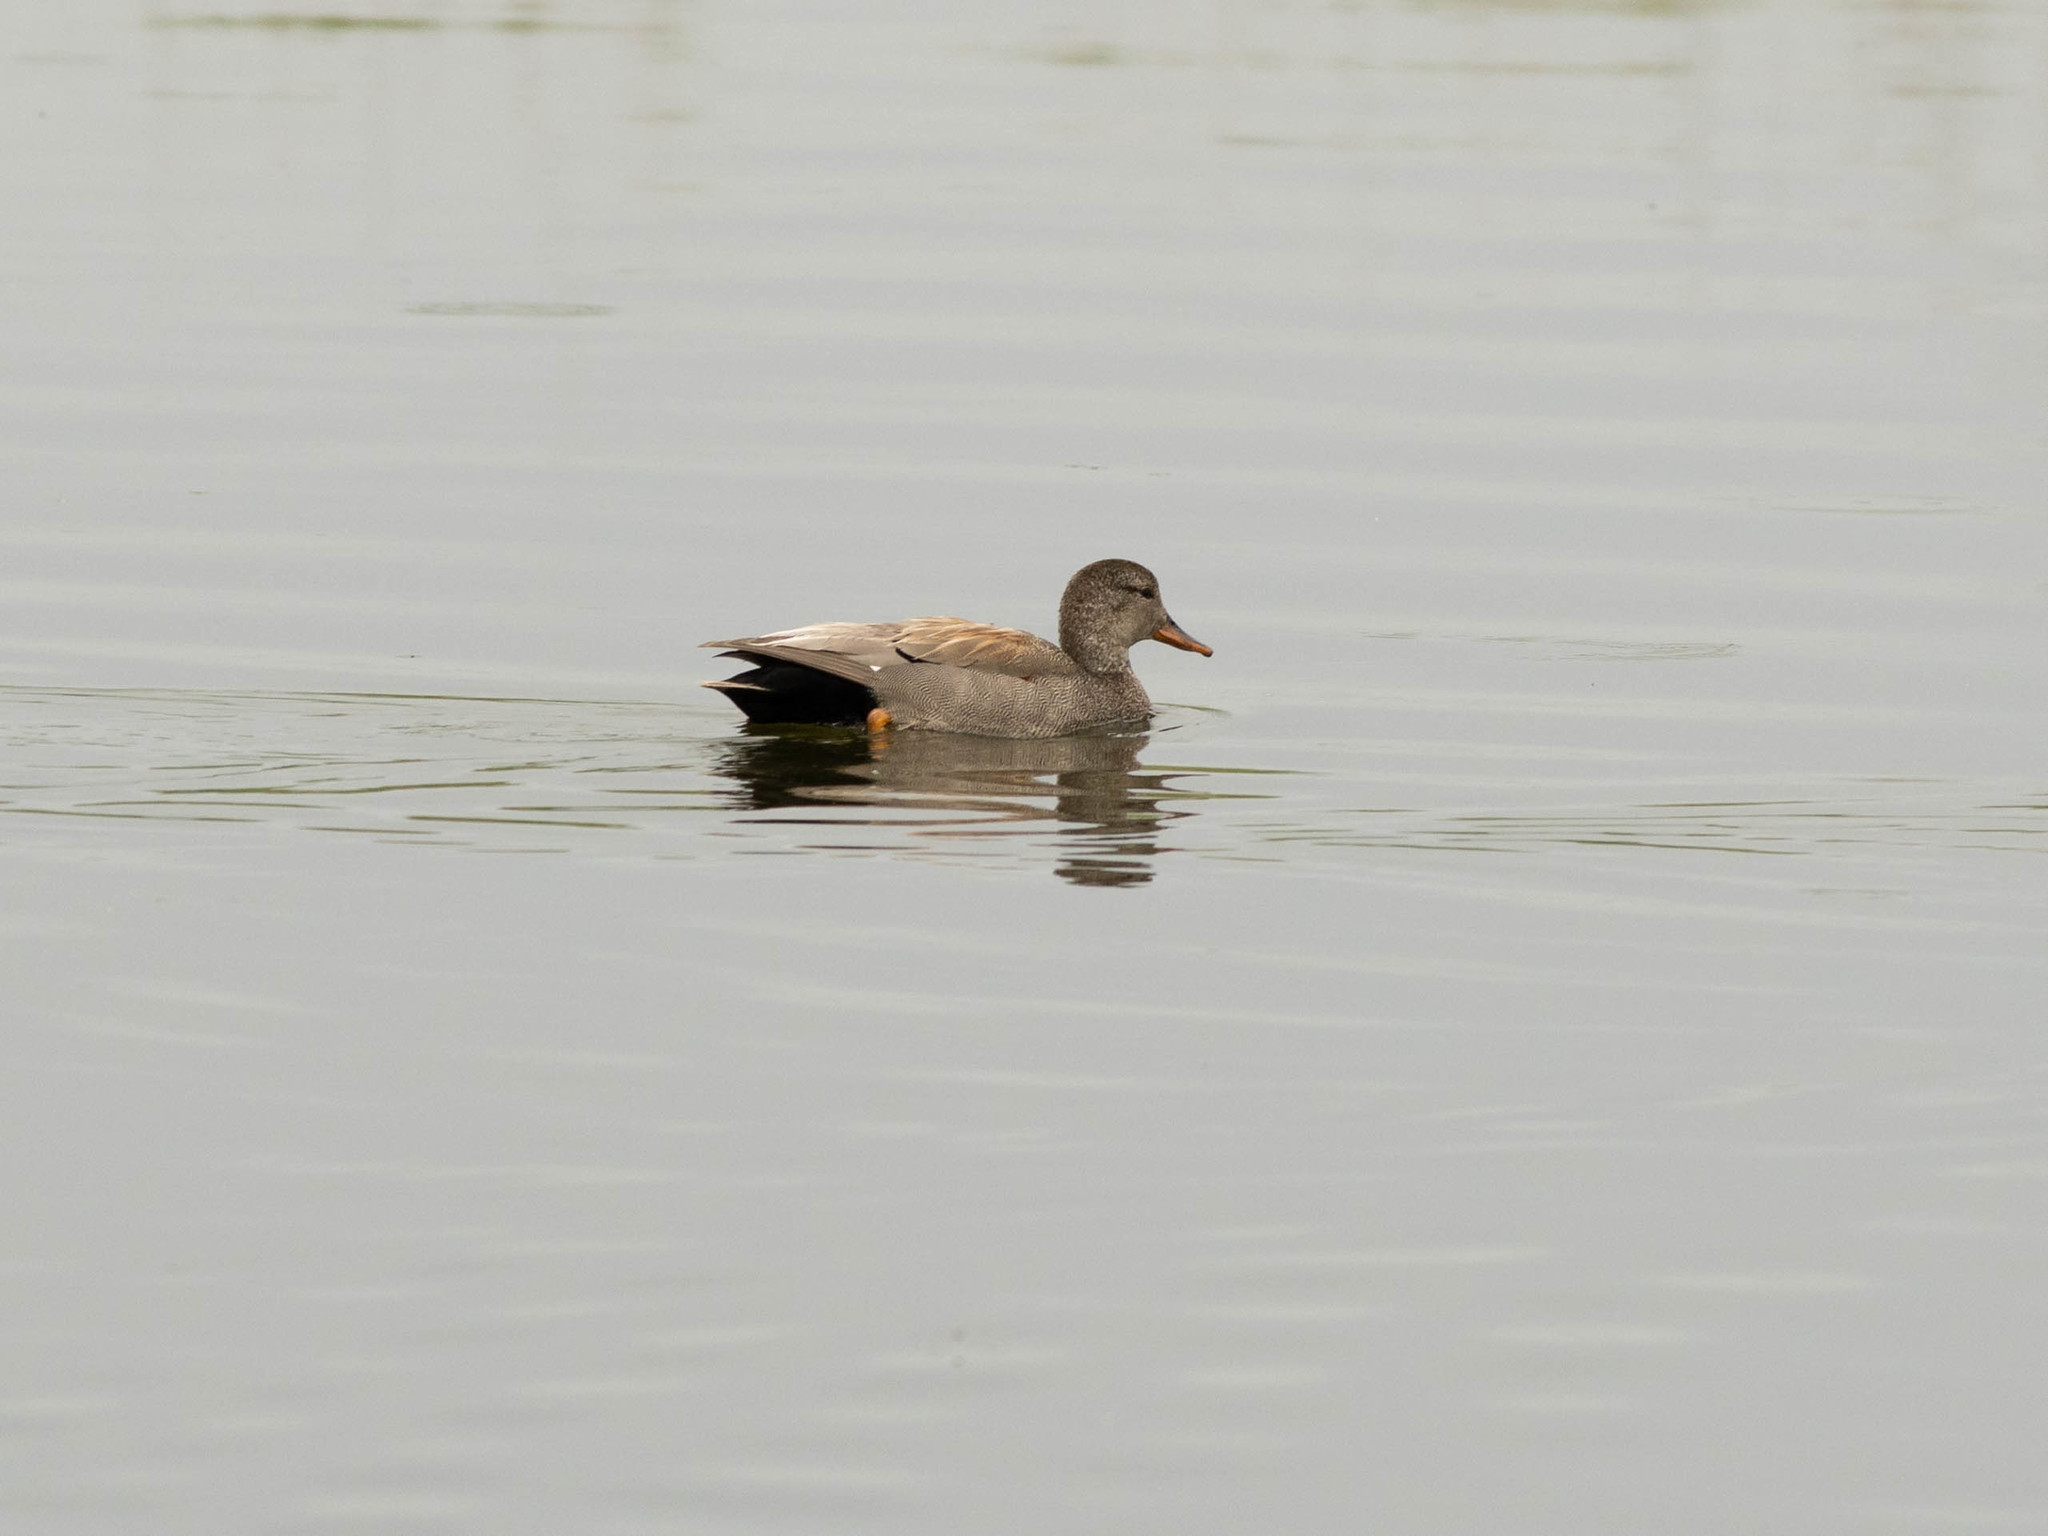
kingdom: Animalia
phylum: Chordata
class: Aves
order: Anseriformes
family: Anatidae
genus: Mareca
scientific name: Mareca strepera
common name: Gadwall
